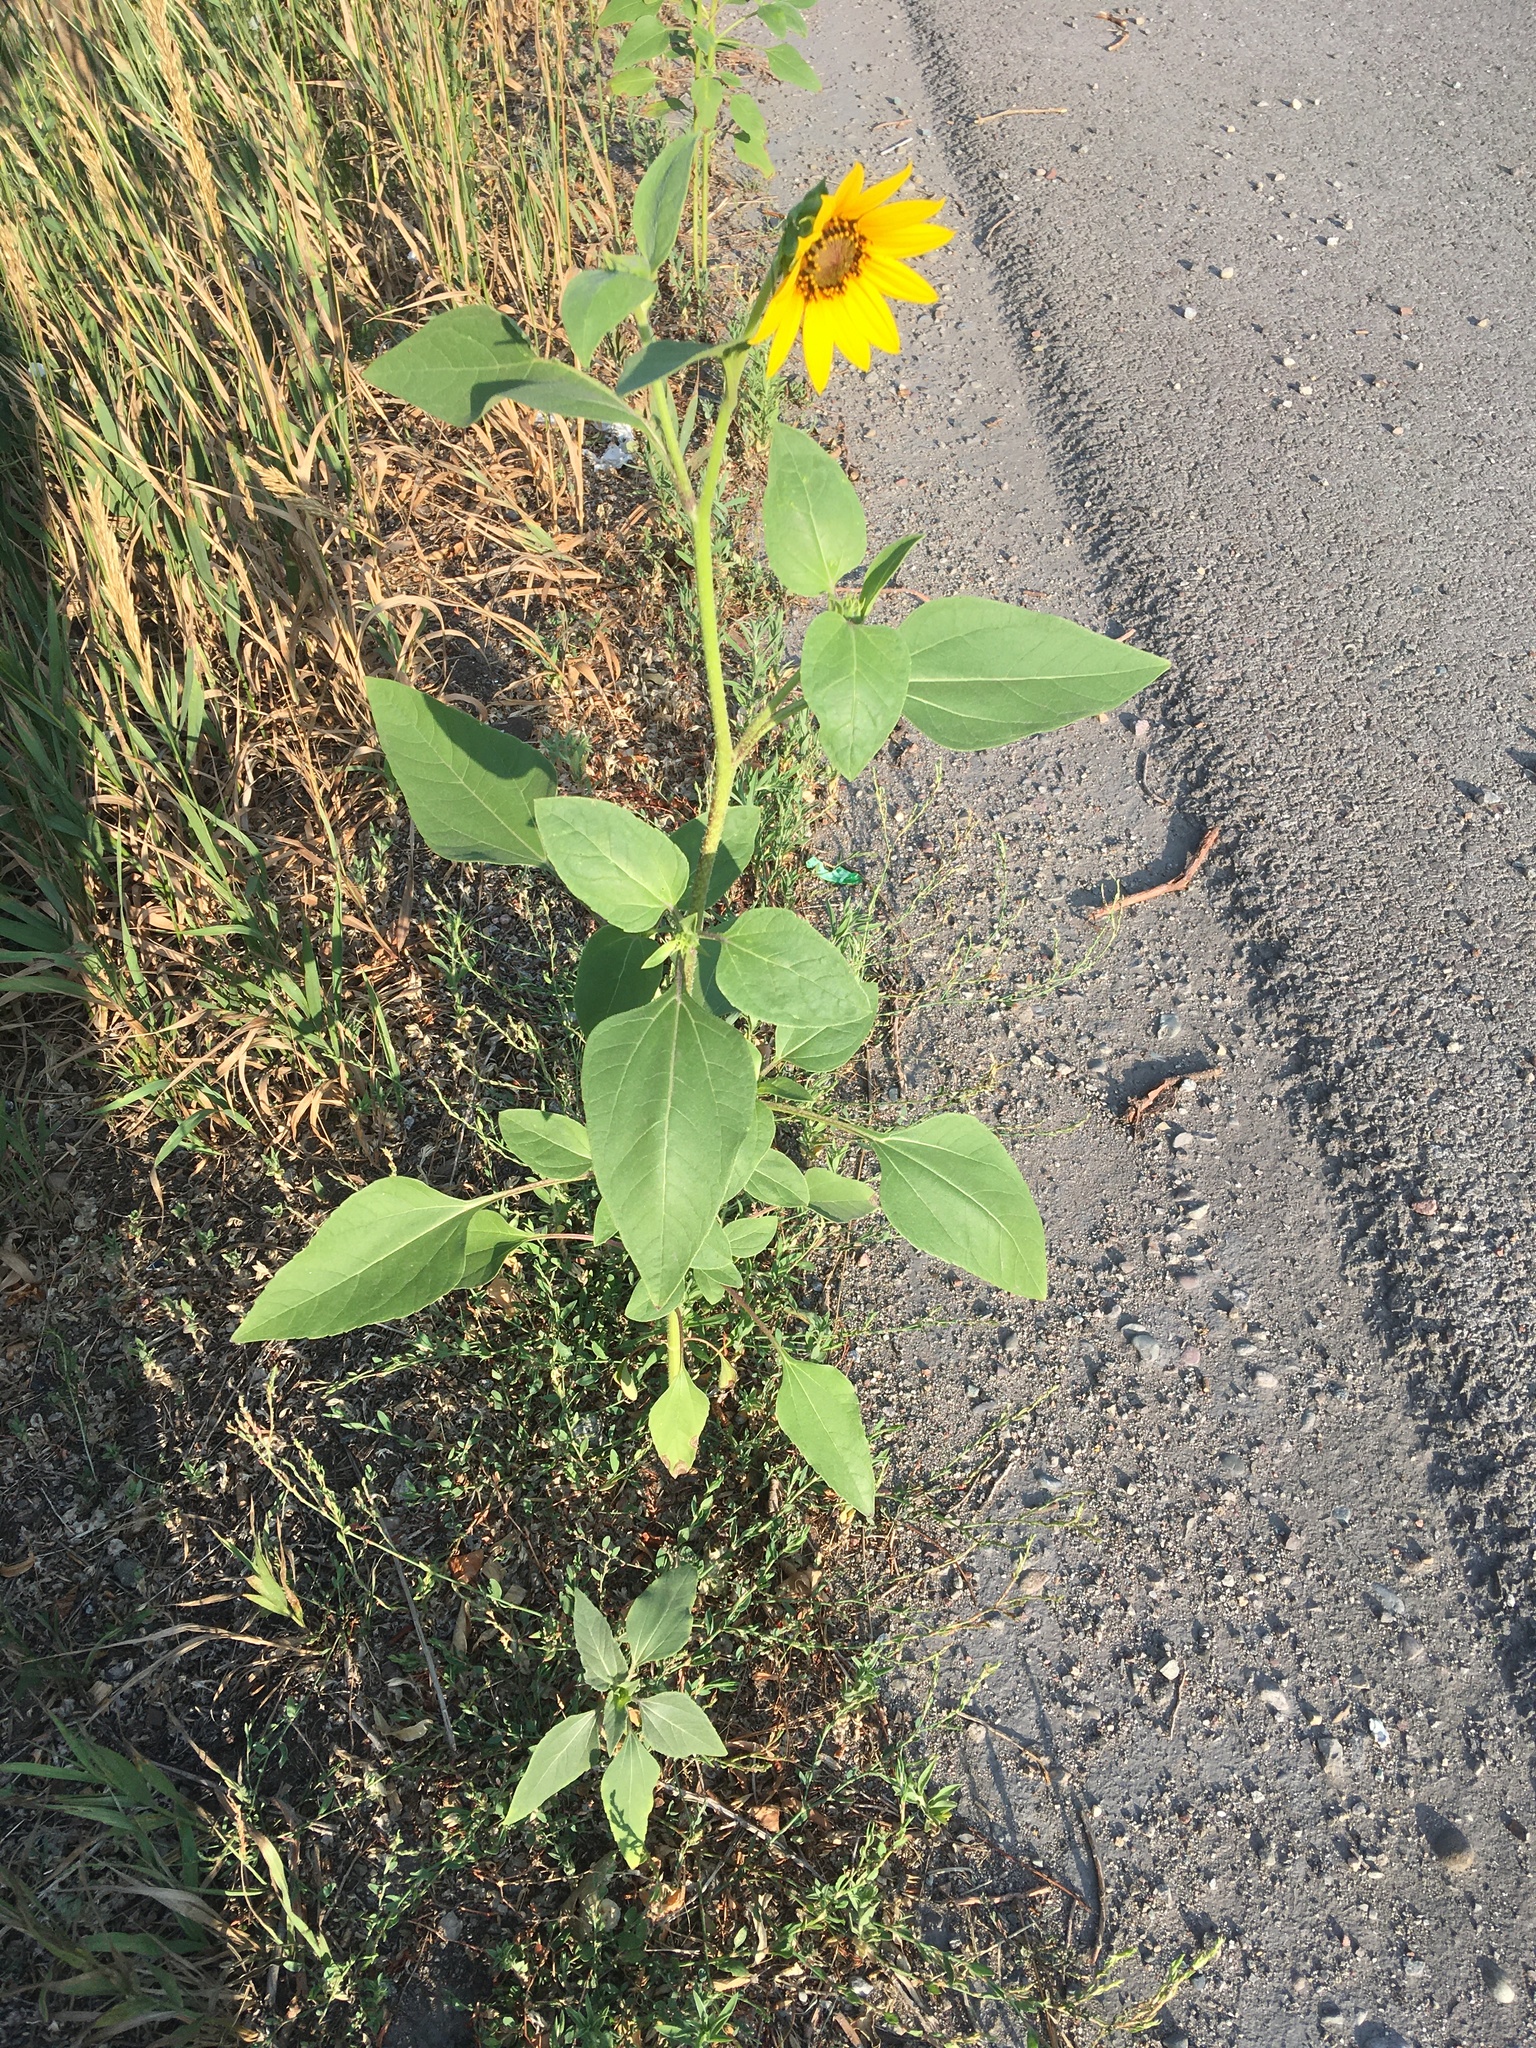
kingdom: Plantae
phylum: Tracheophyta
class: Magnoliopsida
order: Asterales
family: Asteraceae
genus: Helianthus
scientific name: Helianthus annuus
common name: Sunflower
